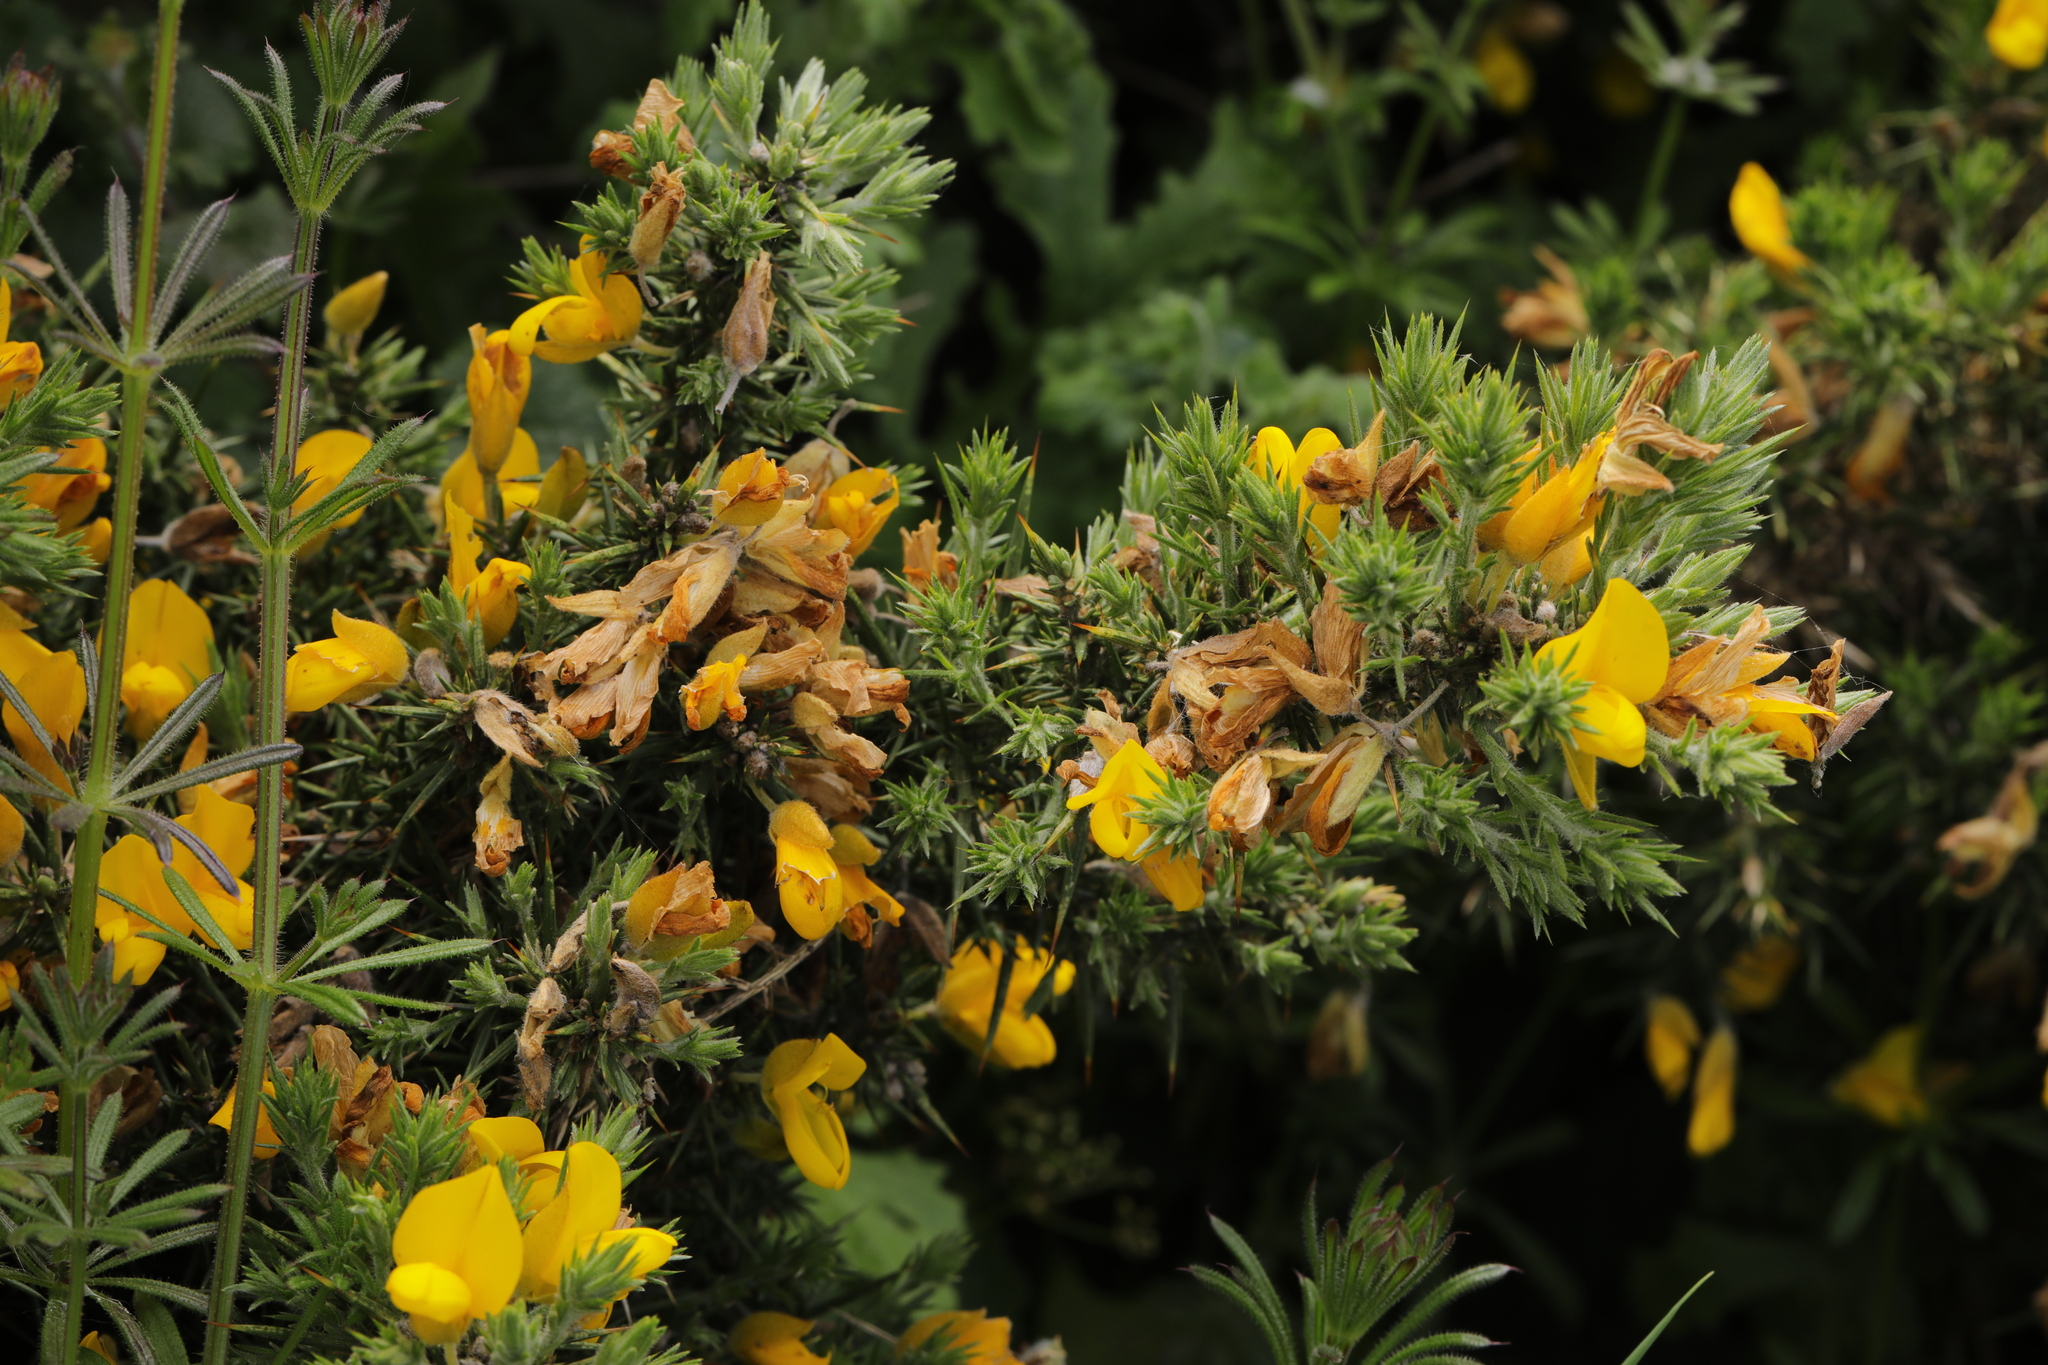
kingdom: Plantae
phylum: Tracheophyta
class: Magnoliopsida
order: Fabales
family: Fabaceae
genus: Ulex
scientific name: Ulex europaeus
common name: Common gorse
